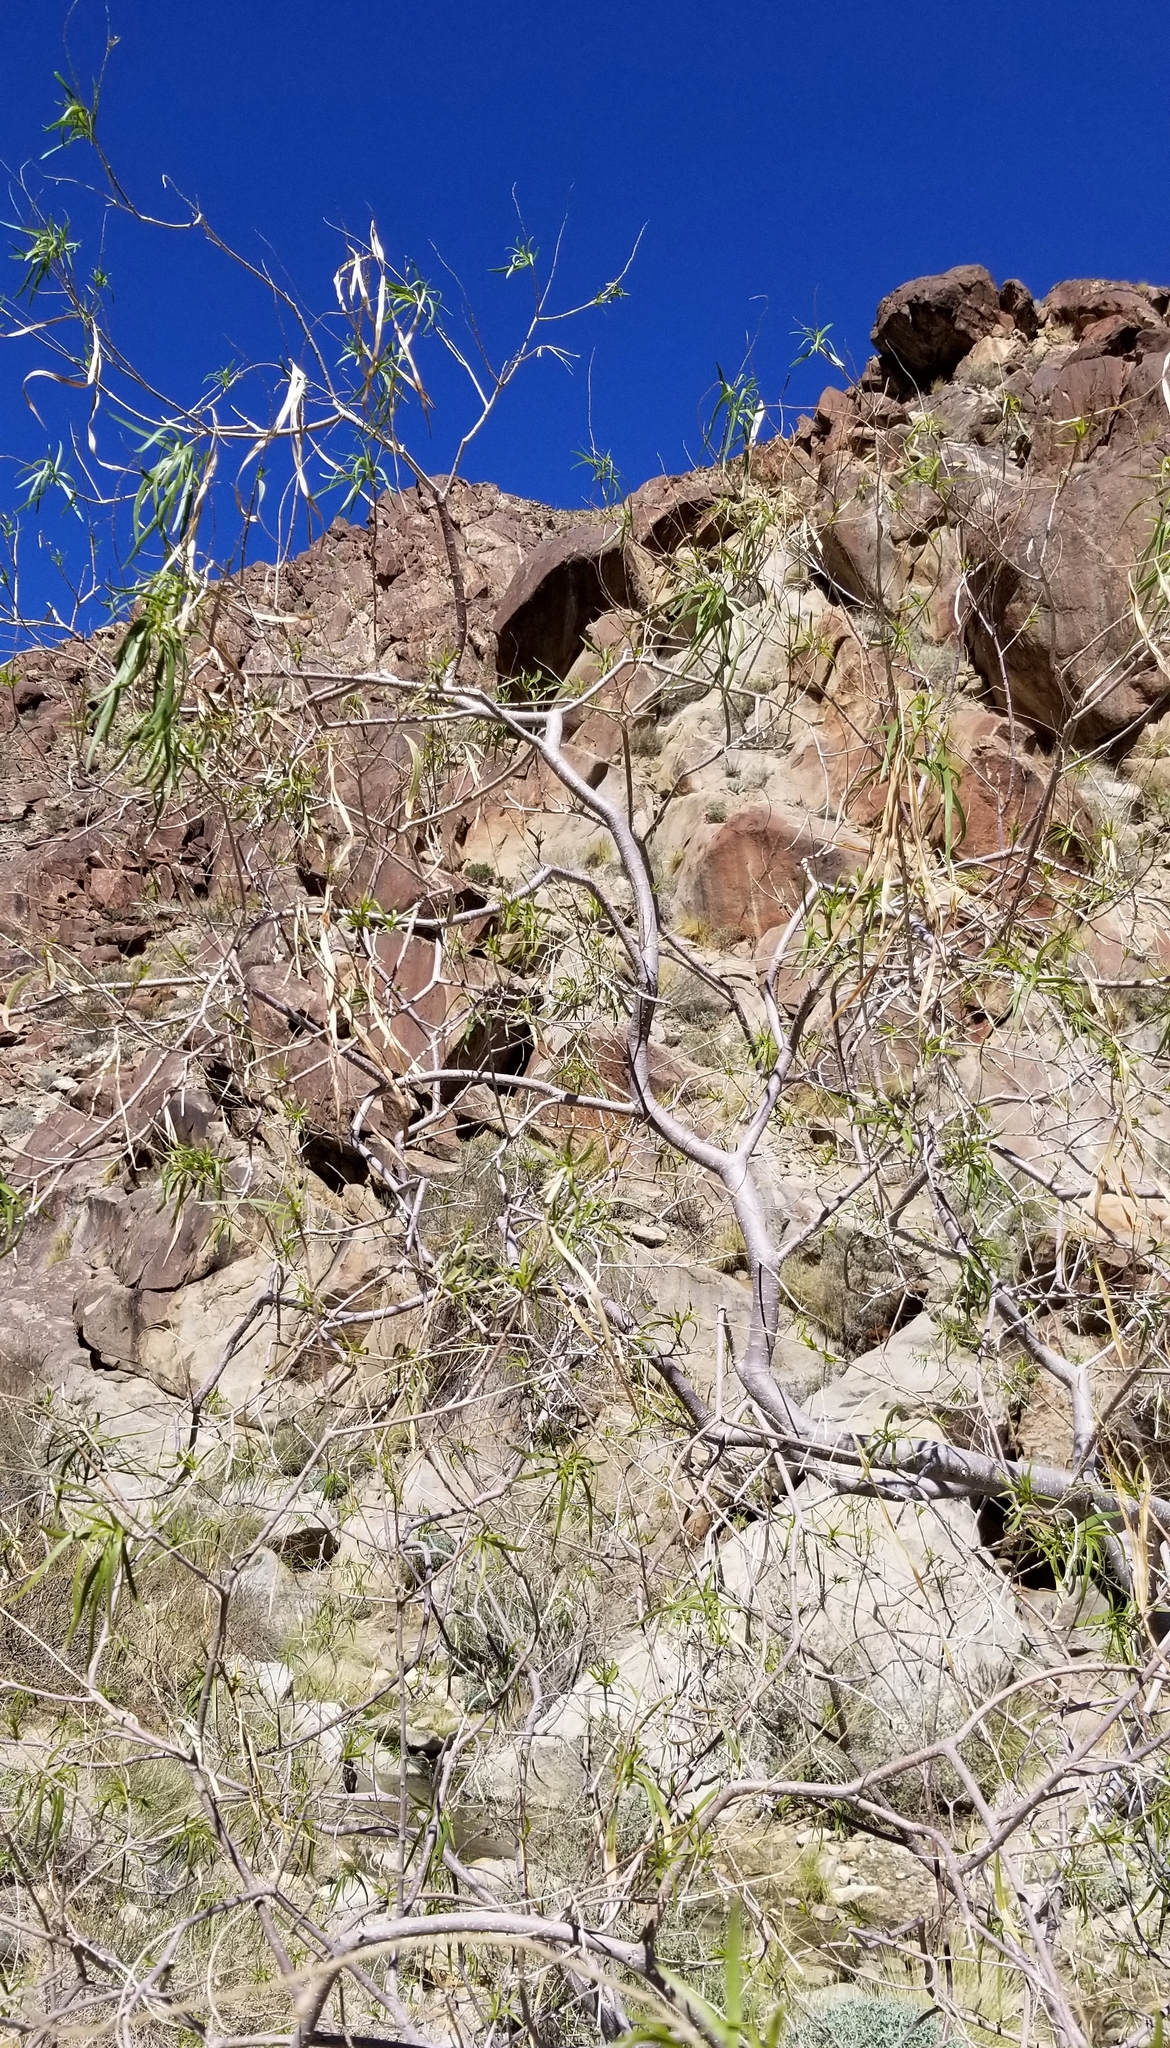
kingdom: Plantae
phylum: Tracheophyta
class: Magnoliopsida
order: Lamiales
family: Bignoniaceae
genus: Chilopsis
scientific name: Chilopsis linearis
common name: Desert-willow
